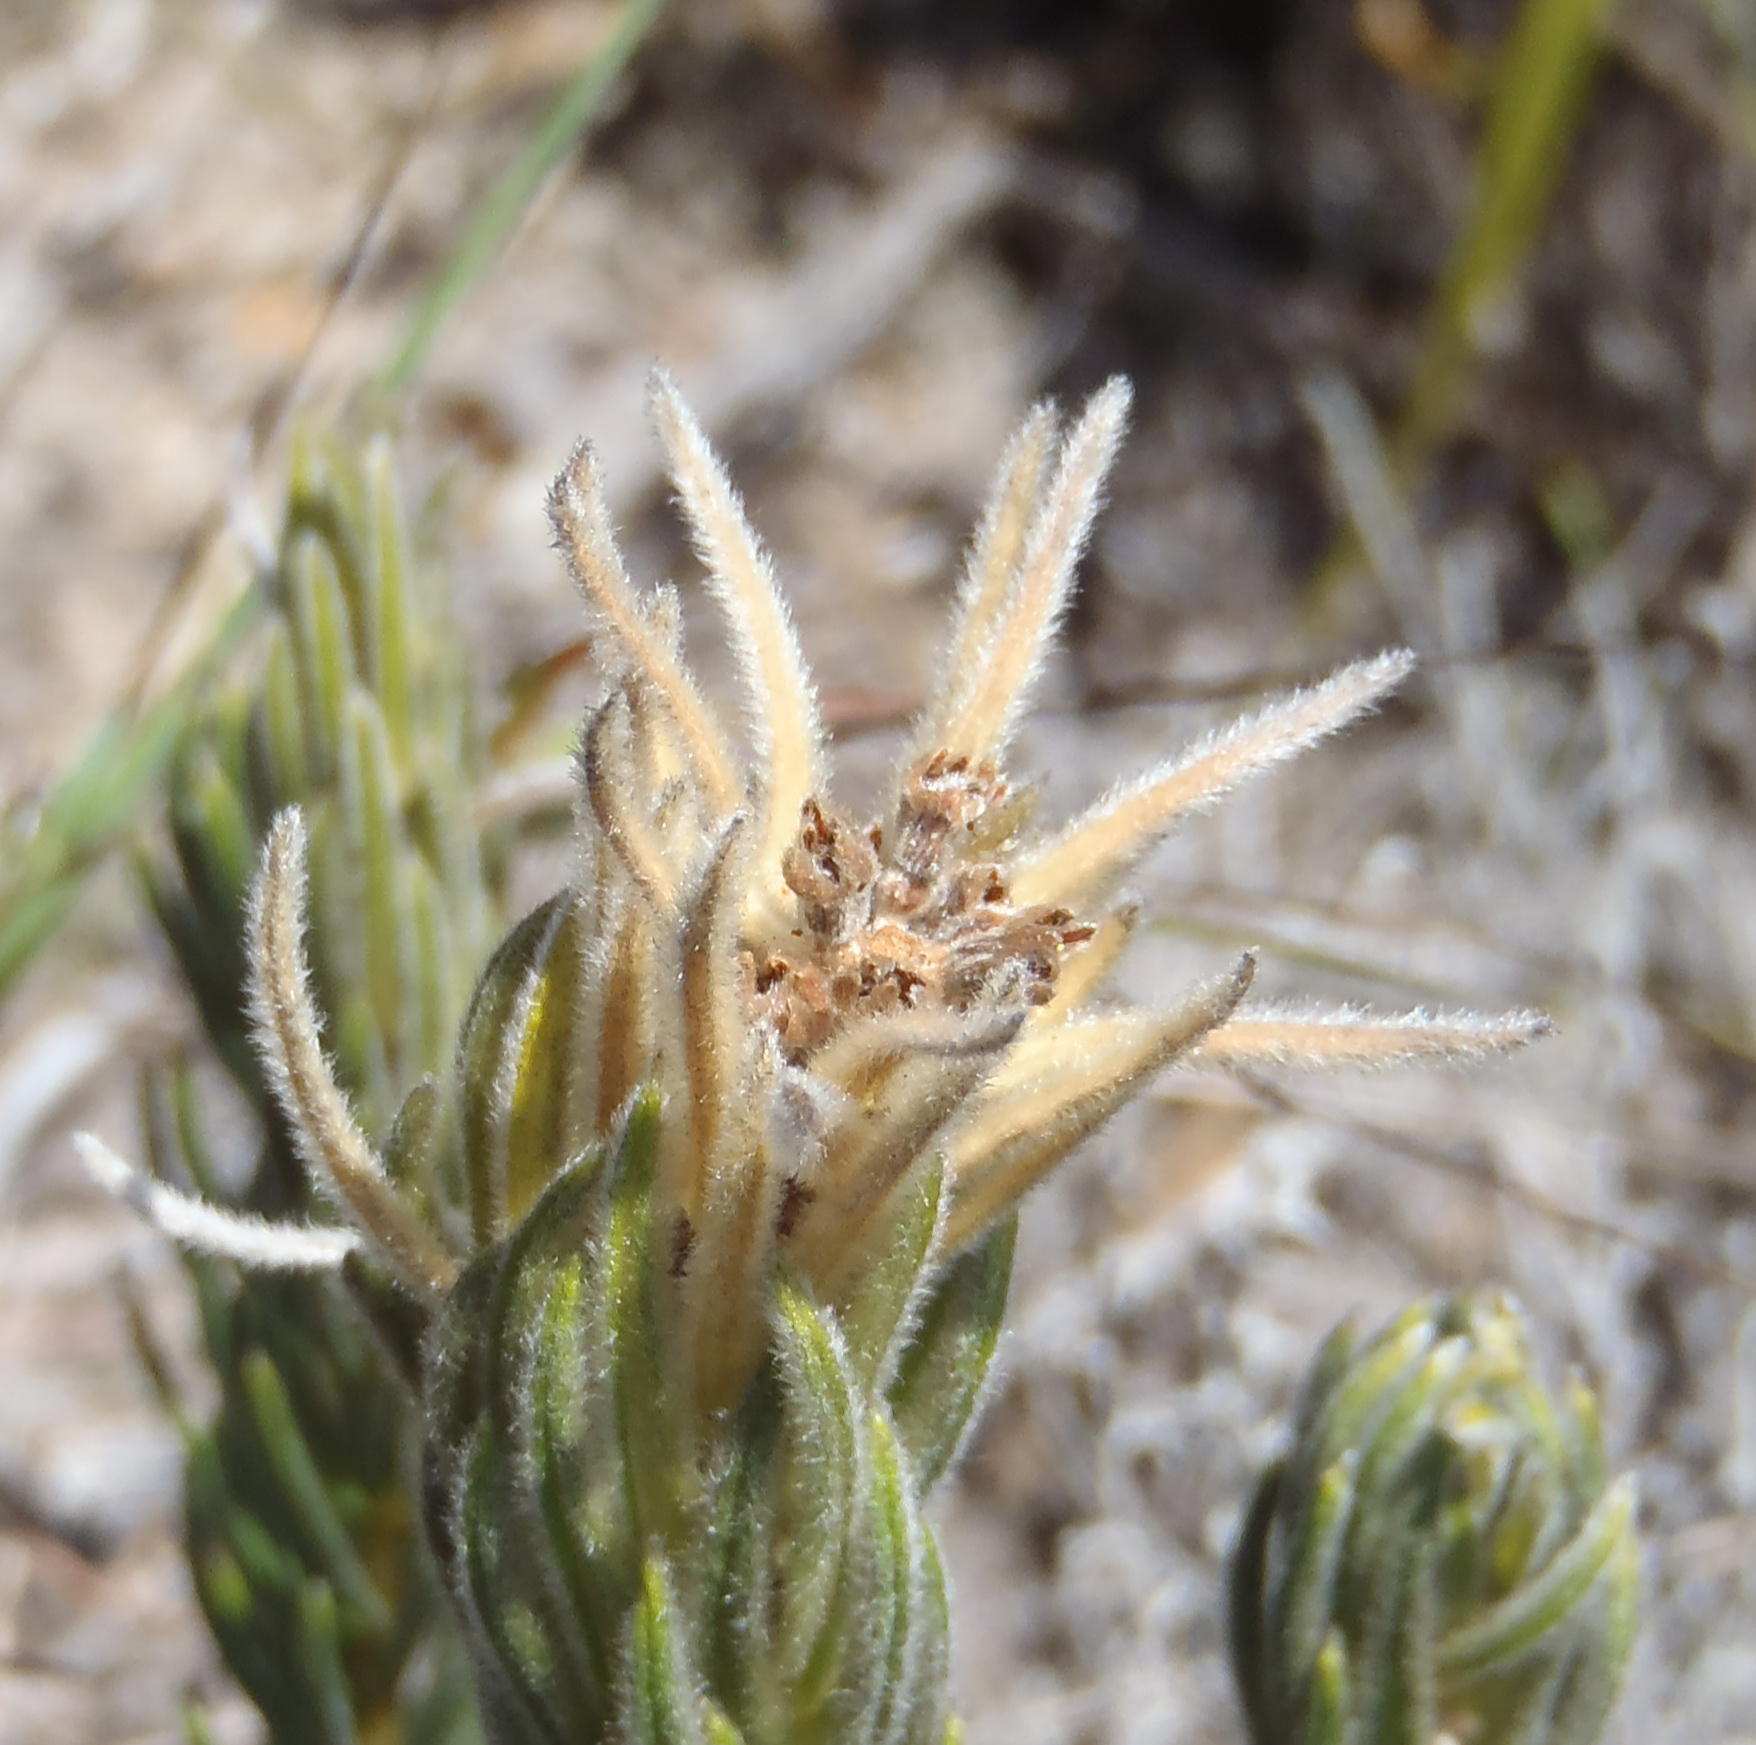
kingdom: Plantae
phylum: Tracheophyta
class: Magnoliopsida
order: Rosales
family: Rhamnaceae
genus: Phylica
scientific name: Phylica velutina
